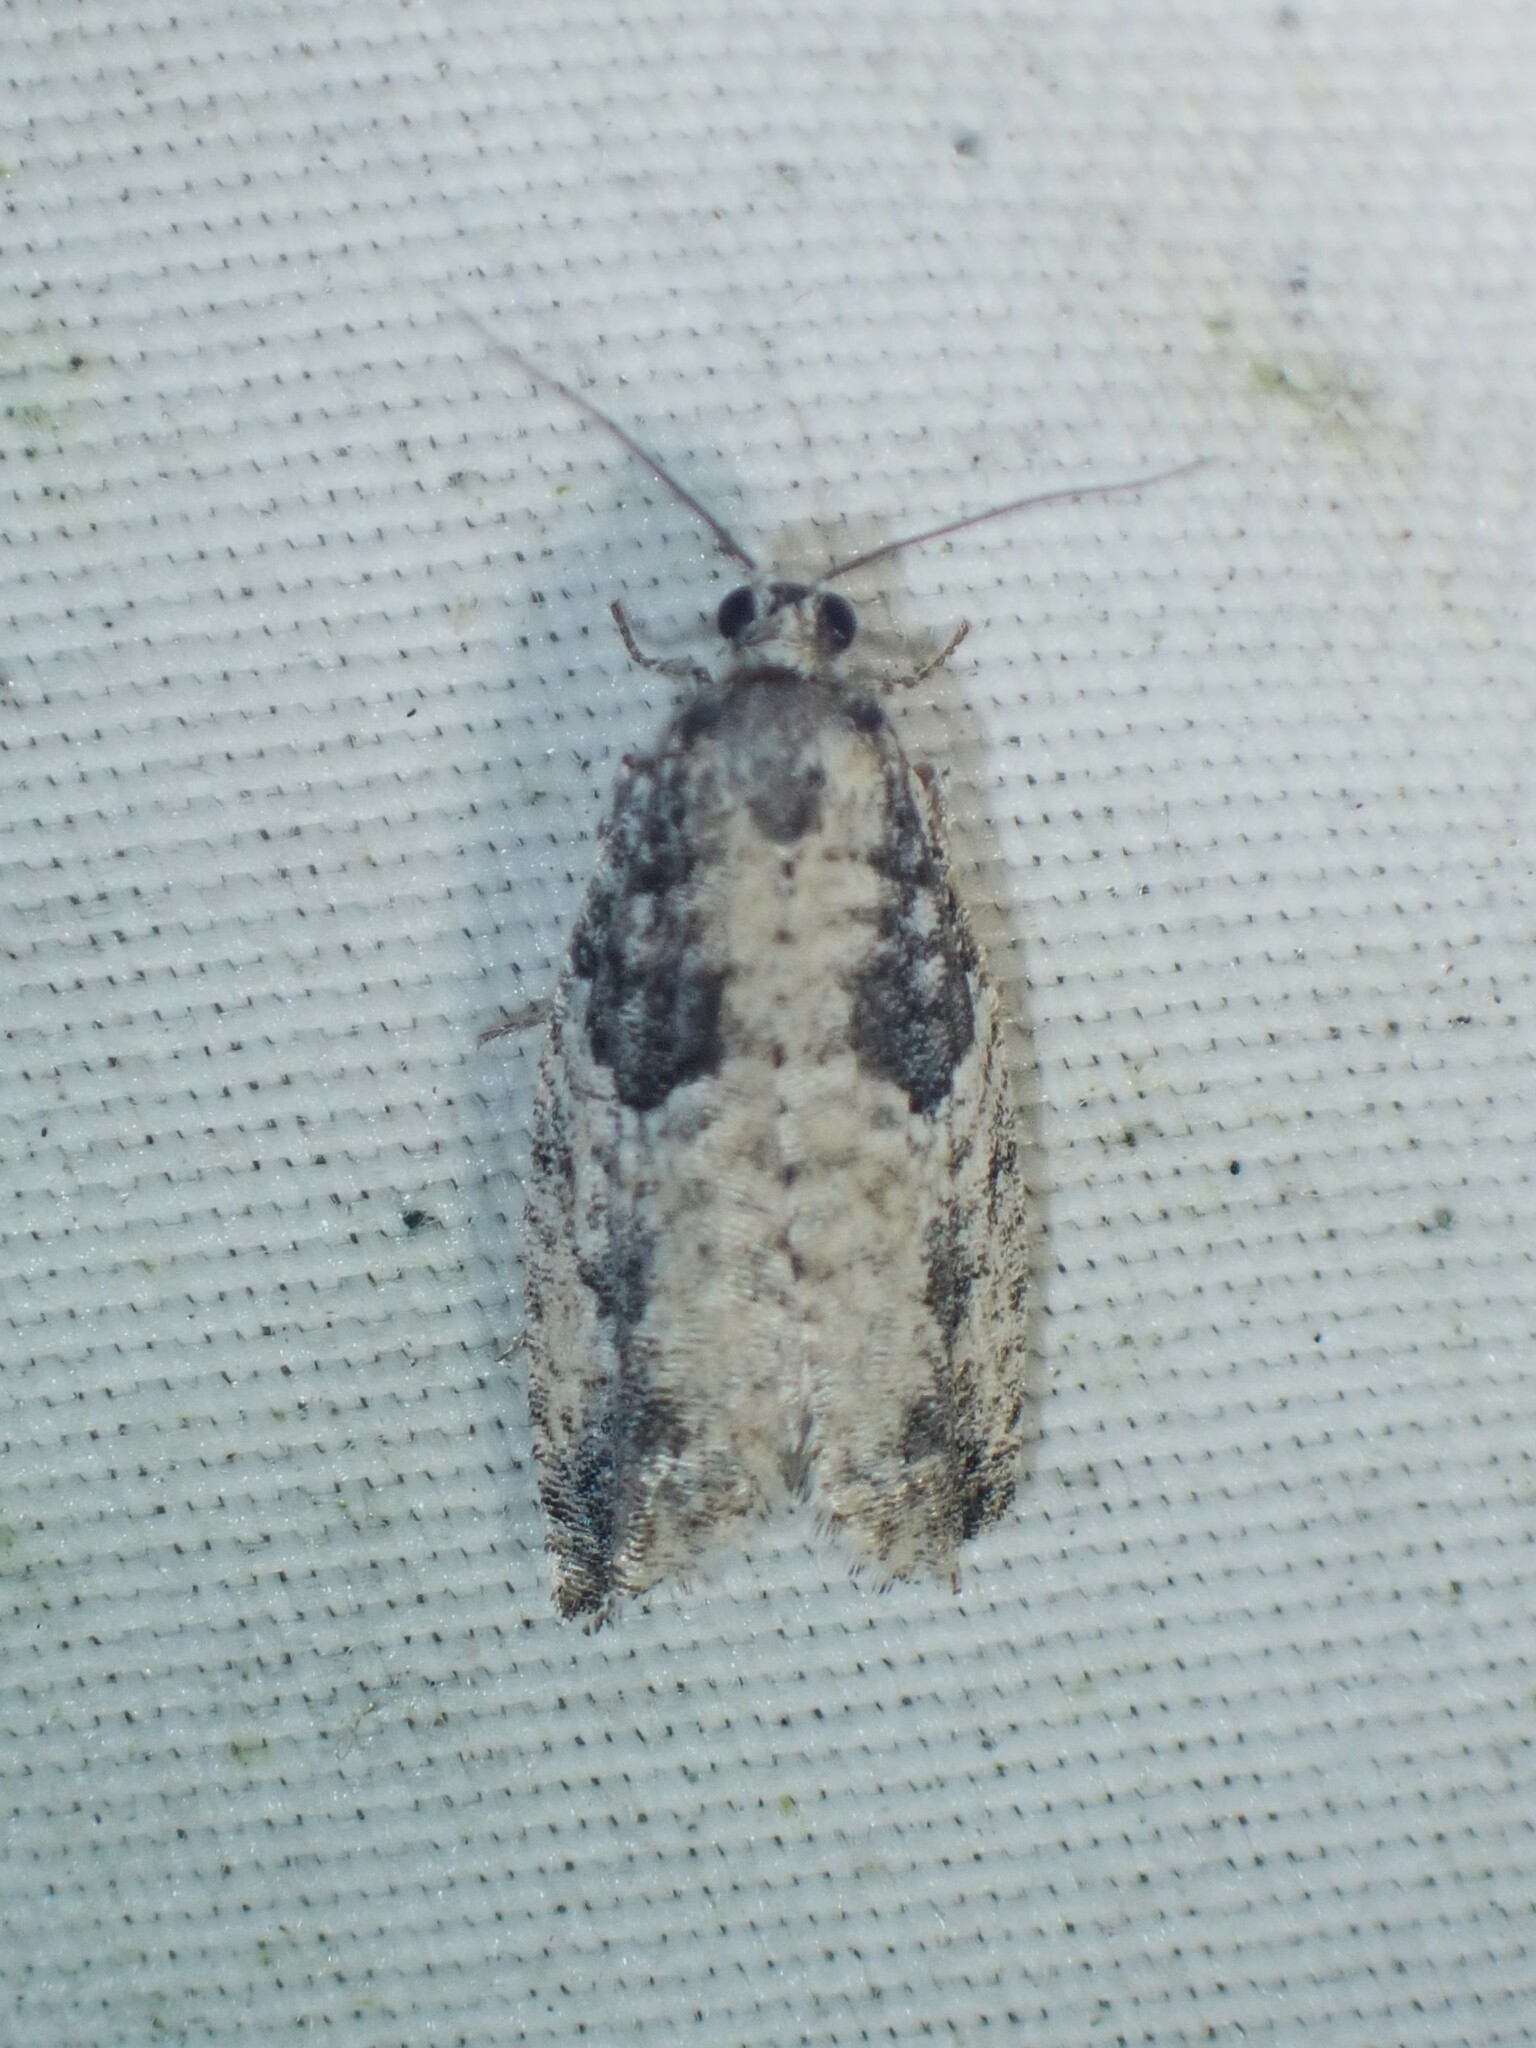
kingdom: Animalia
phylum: Arthropoda
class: Insecta
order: Lepidoptera
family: Tortricidae
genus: Epinotia
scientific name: Epinotia cinereana
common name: Grey aspen bell
